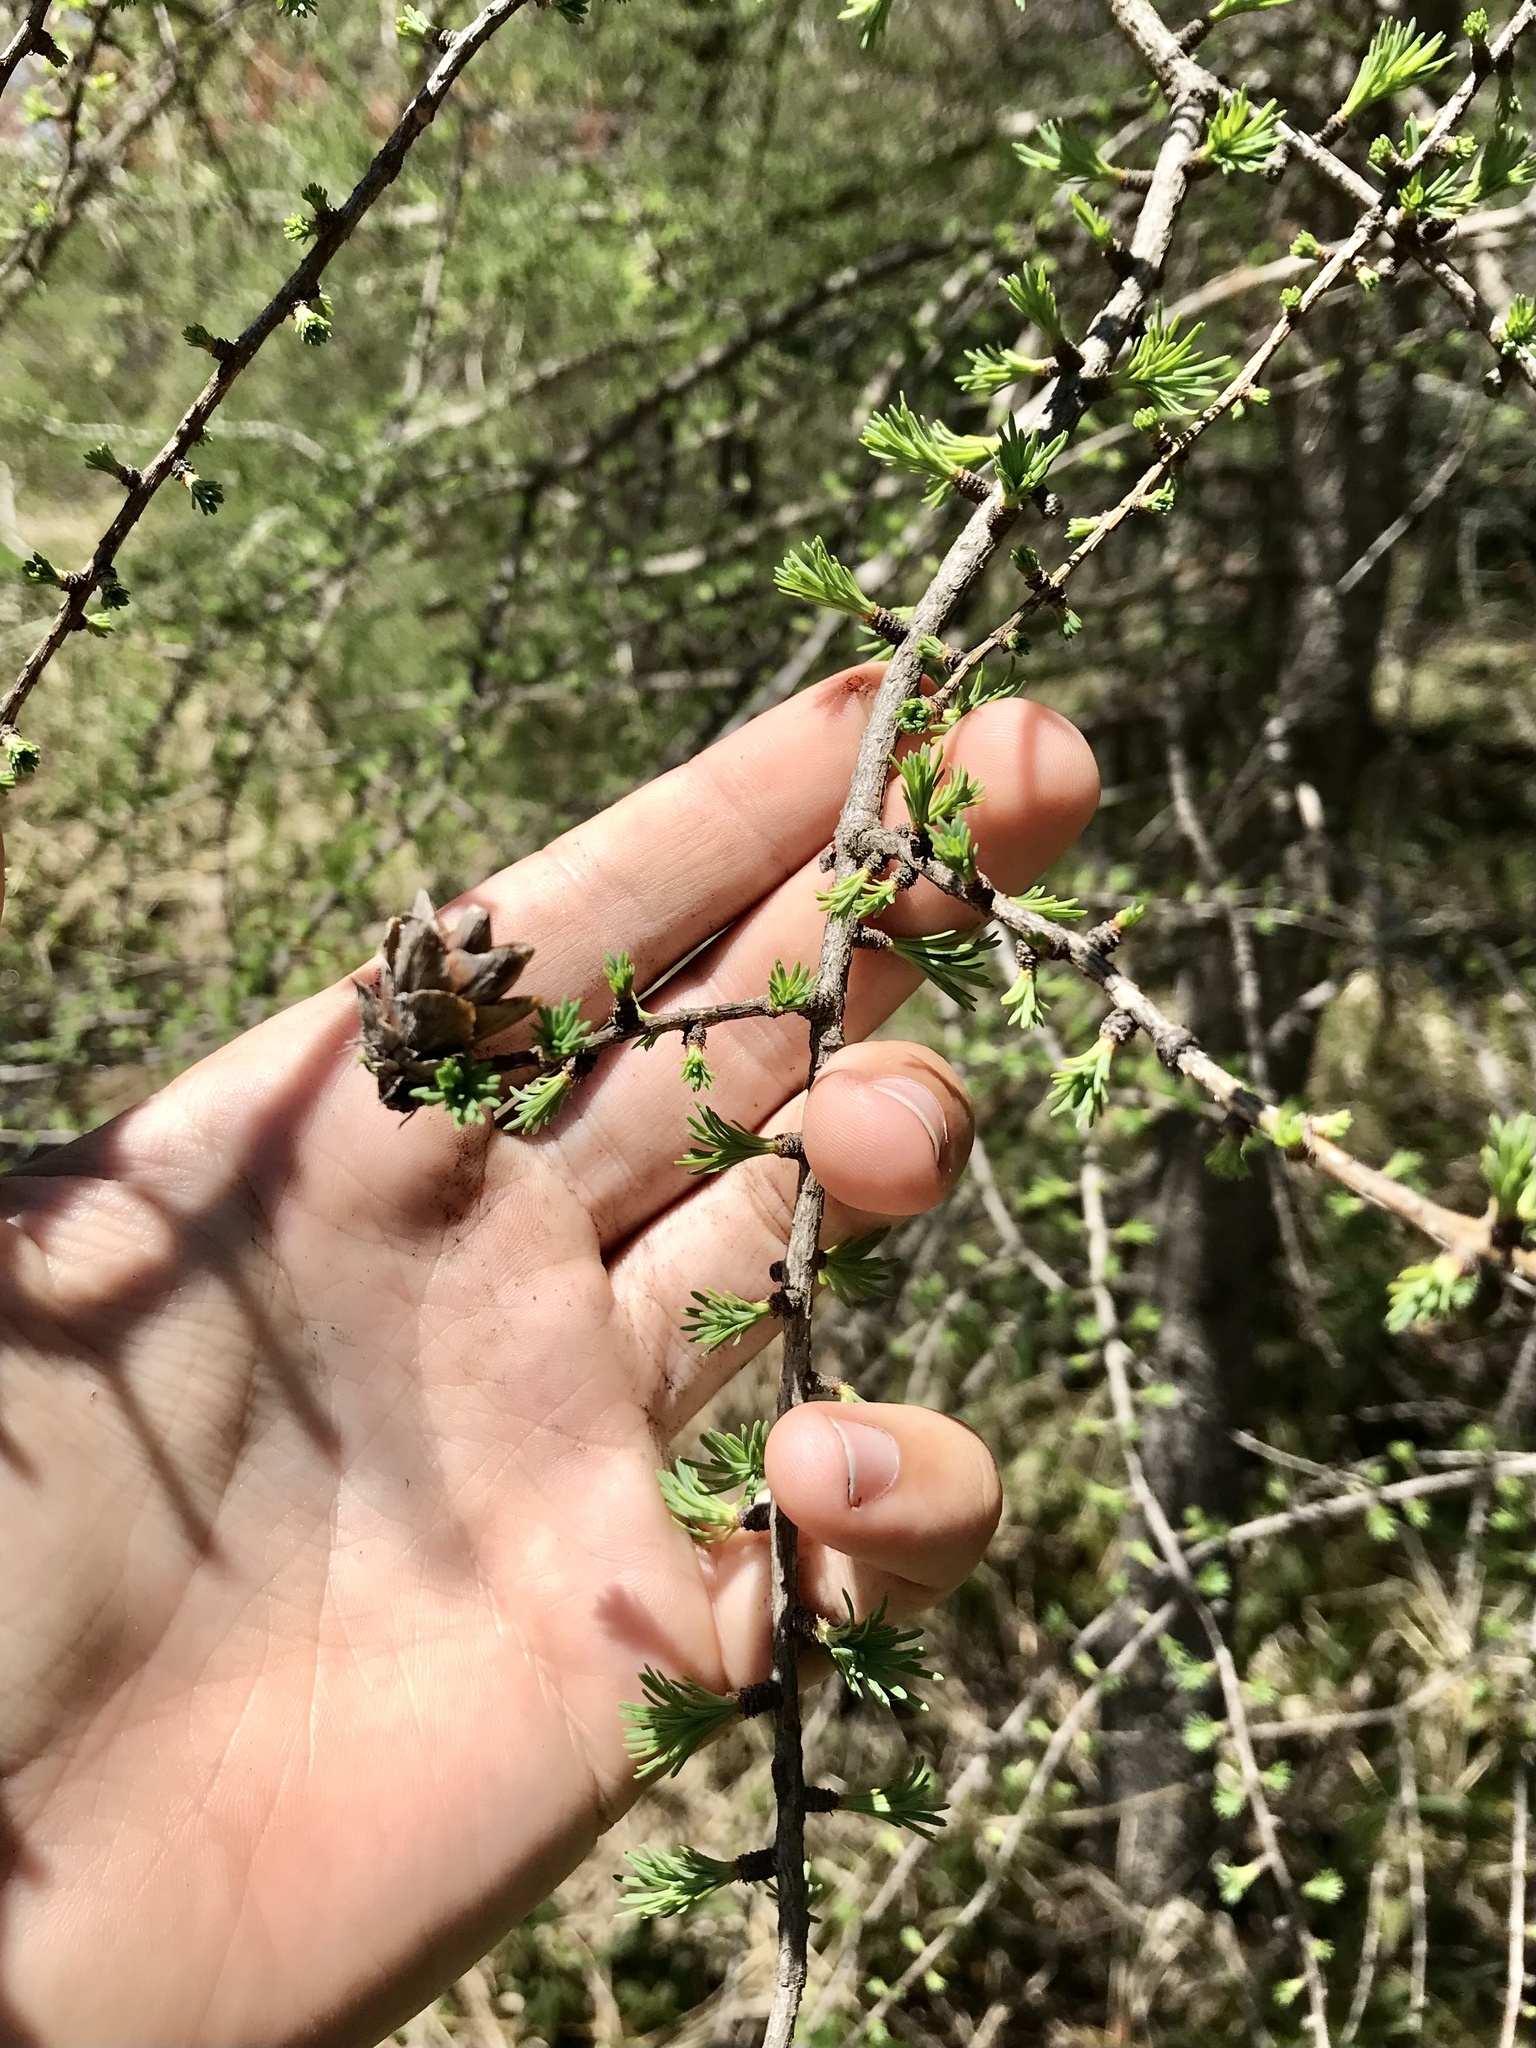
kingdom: Plantae
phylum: Tracheophyta
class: Pinopsida
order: Pinales
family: Pinaceae
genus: Larix
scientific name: Larix laricina
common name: American larch
